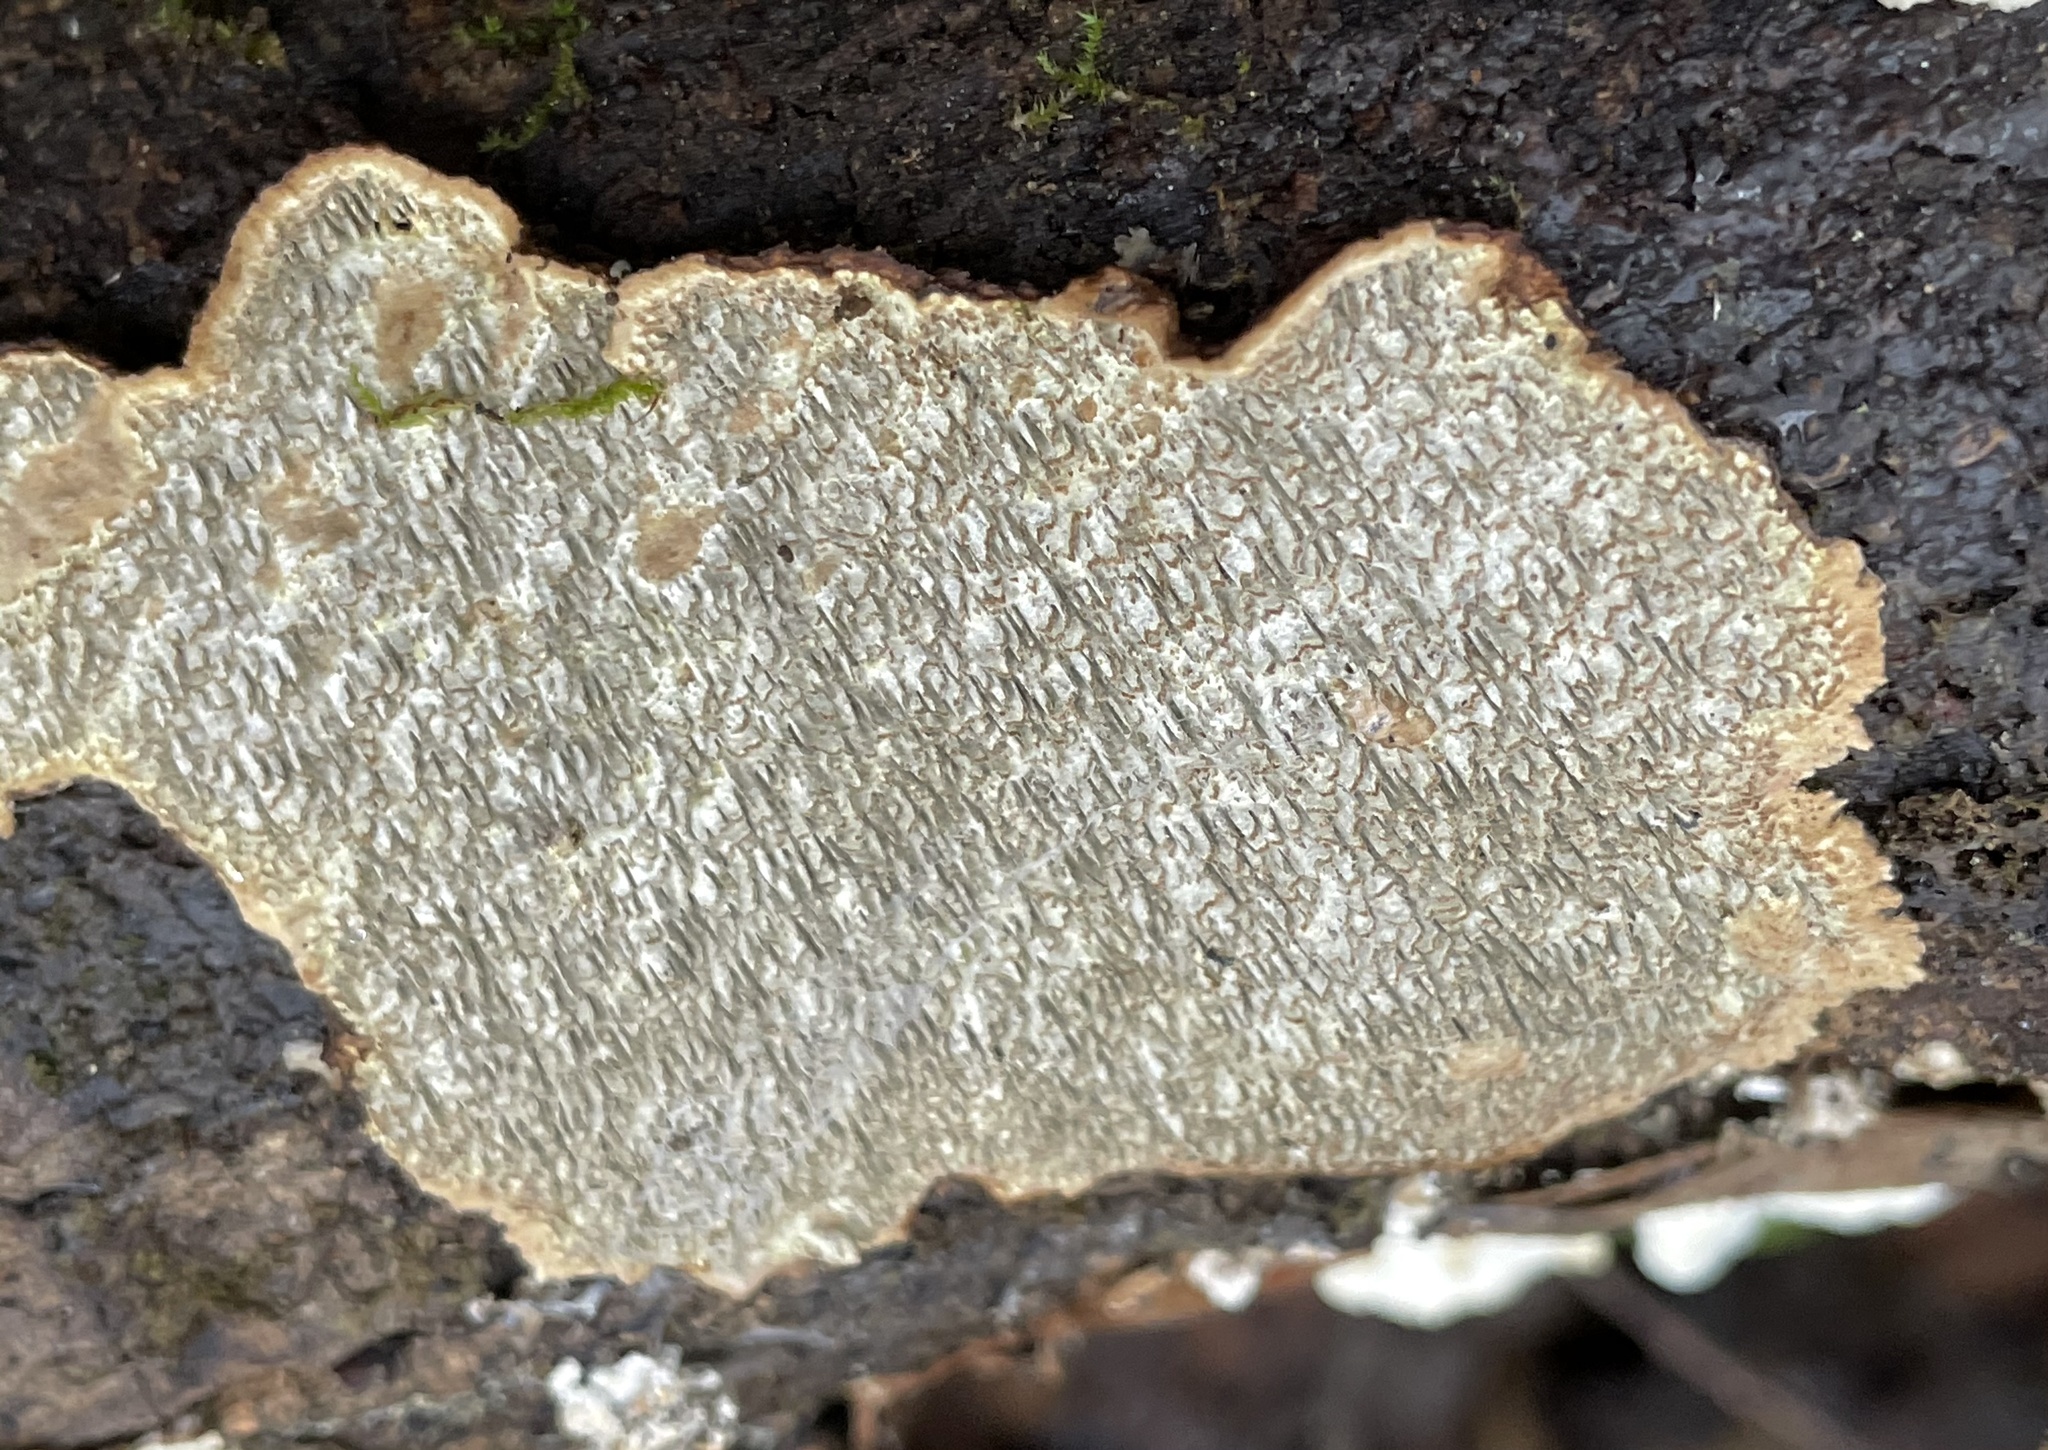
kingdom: Fungi
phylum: Basidiomycota
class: Agaricomycetes
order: Polyporales
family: Polyporaceae
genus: Dentocorticium
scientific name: Dentocorticium portoricense
